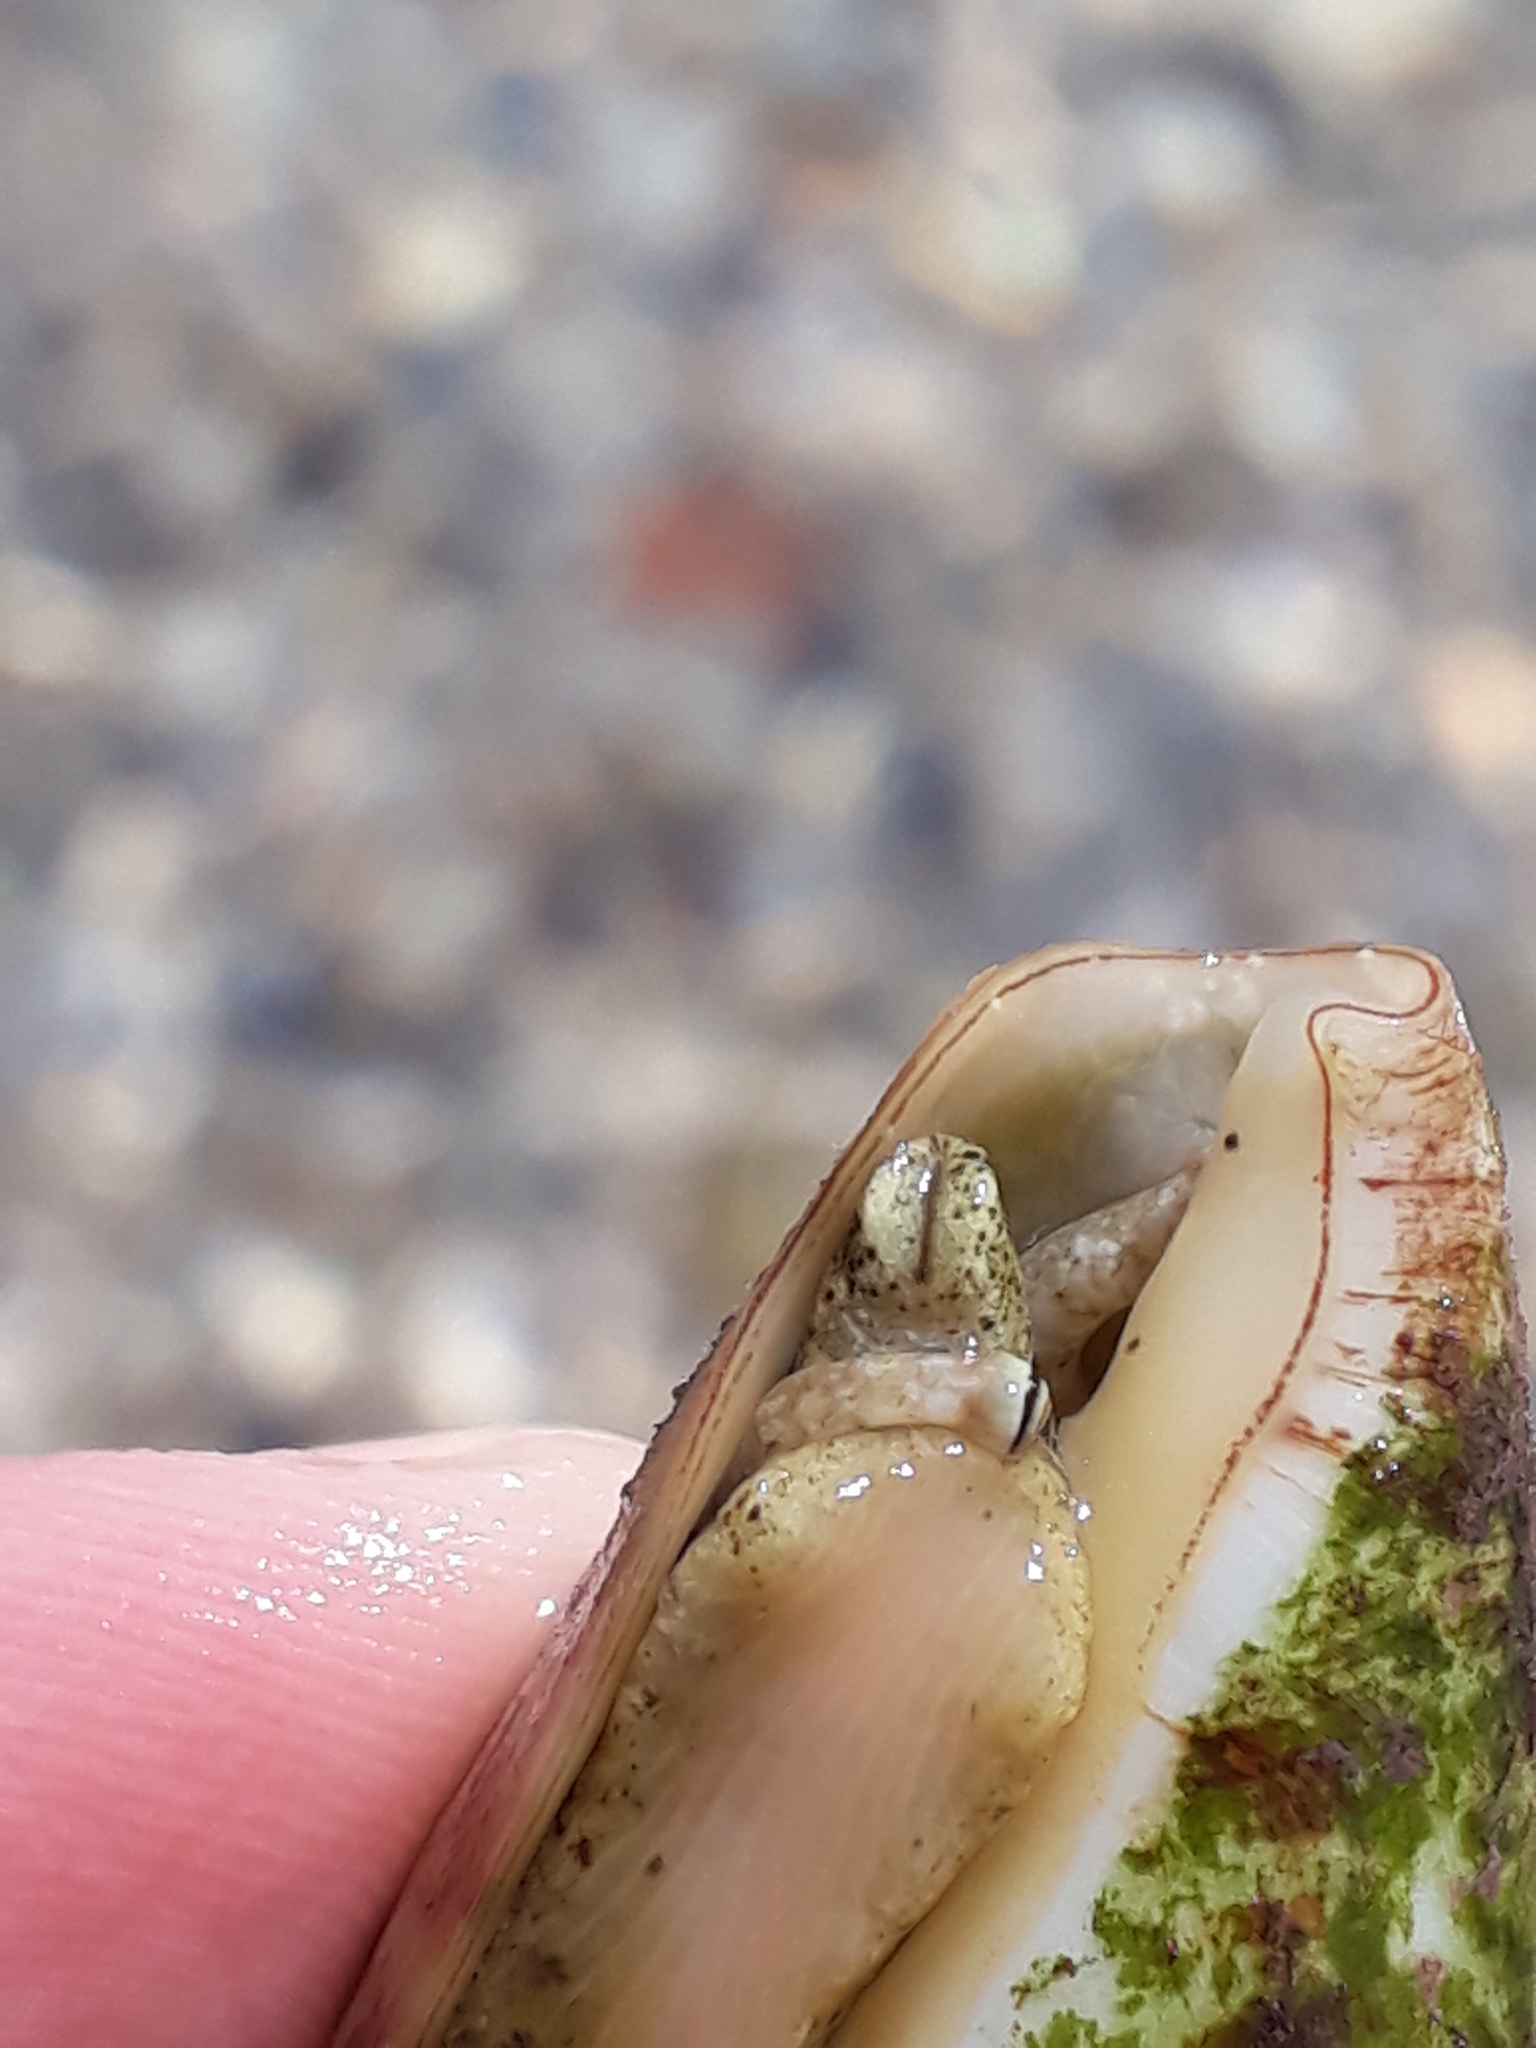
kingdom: Animalia
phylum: Mollusca
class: Gastropoda
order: Littorinimorpha
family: Strombidae
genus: Conomurex
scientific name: Conomurex persicus
